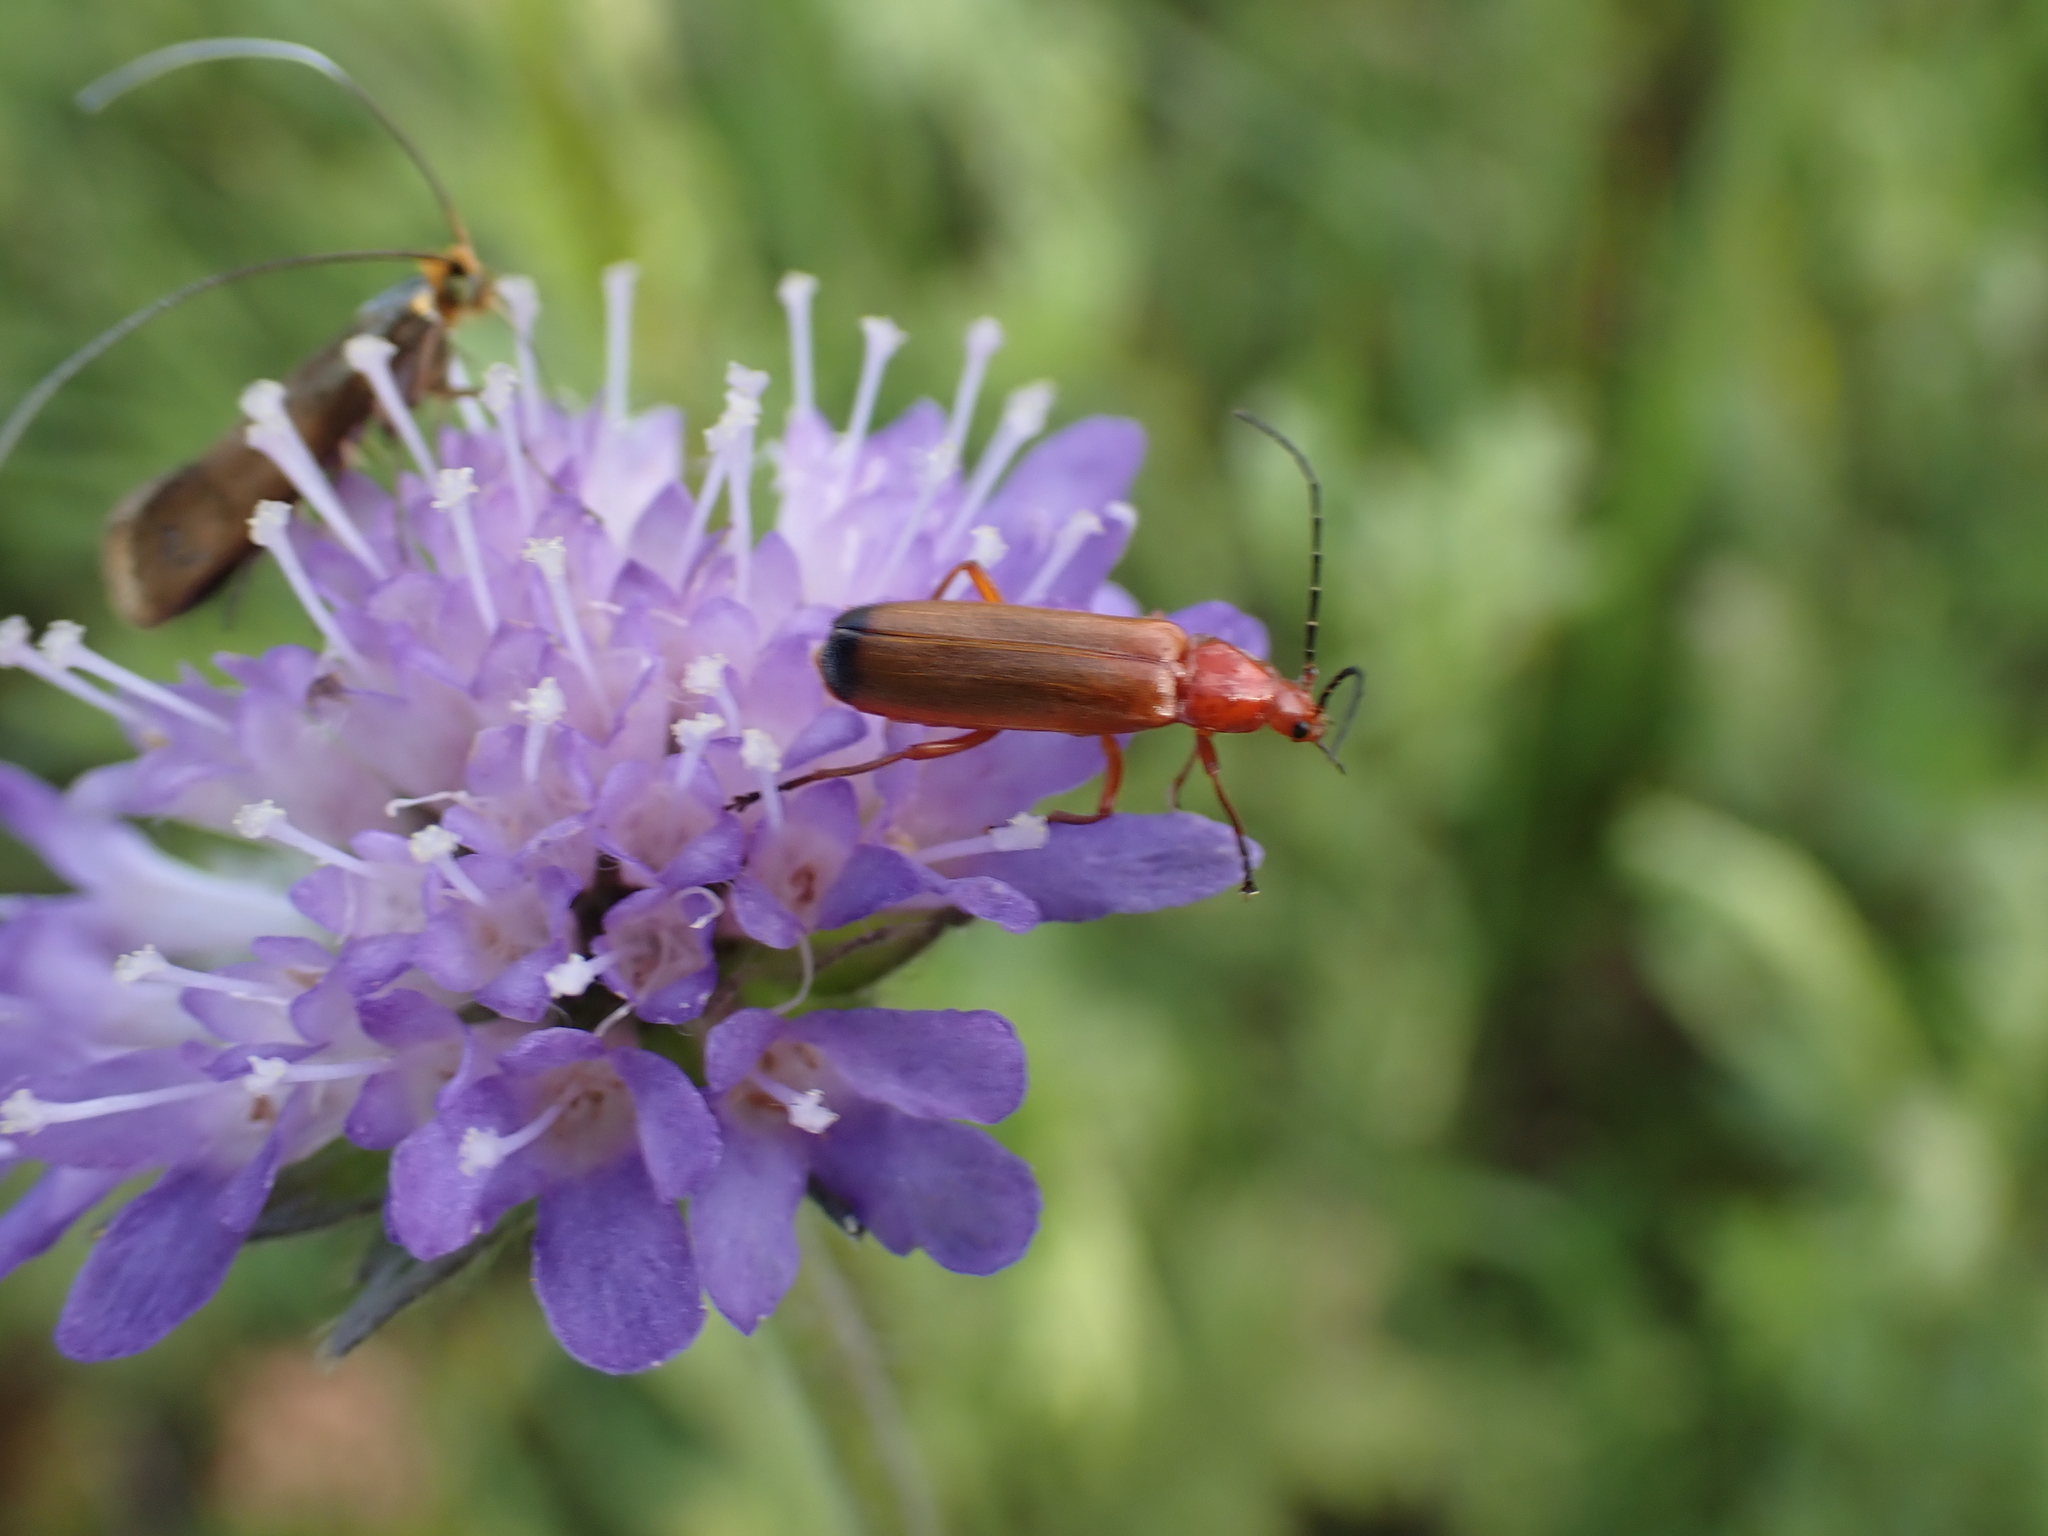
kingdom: Animalia
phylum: Arthropoda
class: Insecta
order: Coleoptera
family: Cantharidae
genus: Rhagonycha
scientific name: Rhagonycha fulva
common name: Common red soldier beetle
